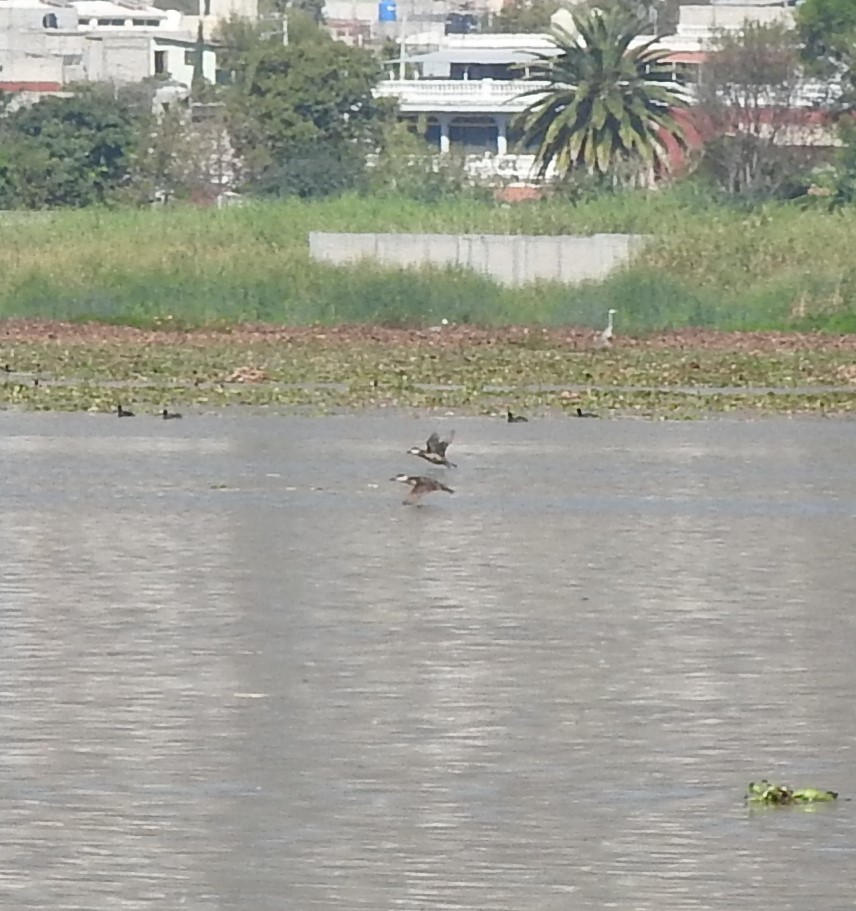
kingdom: Animalia
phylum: Chordata
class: Aves
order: Anseriformes
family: Anatidae
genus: Oxyura
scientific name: Oxyura jamaicensis
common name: Ruddy duck
